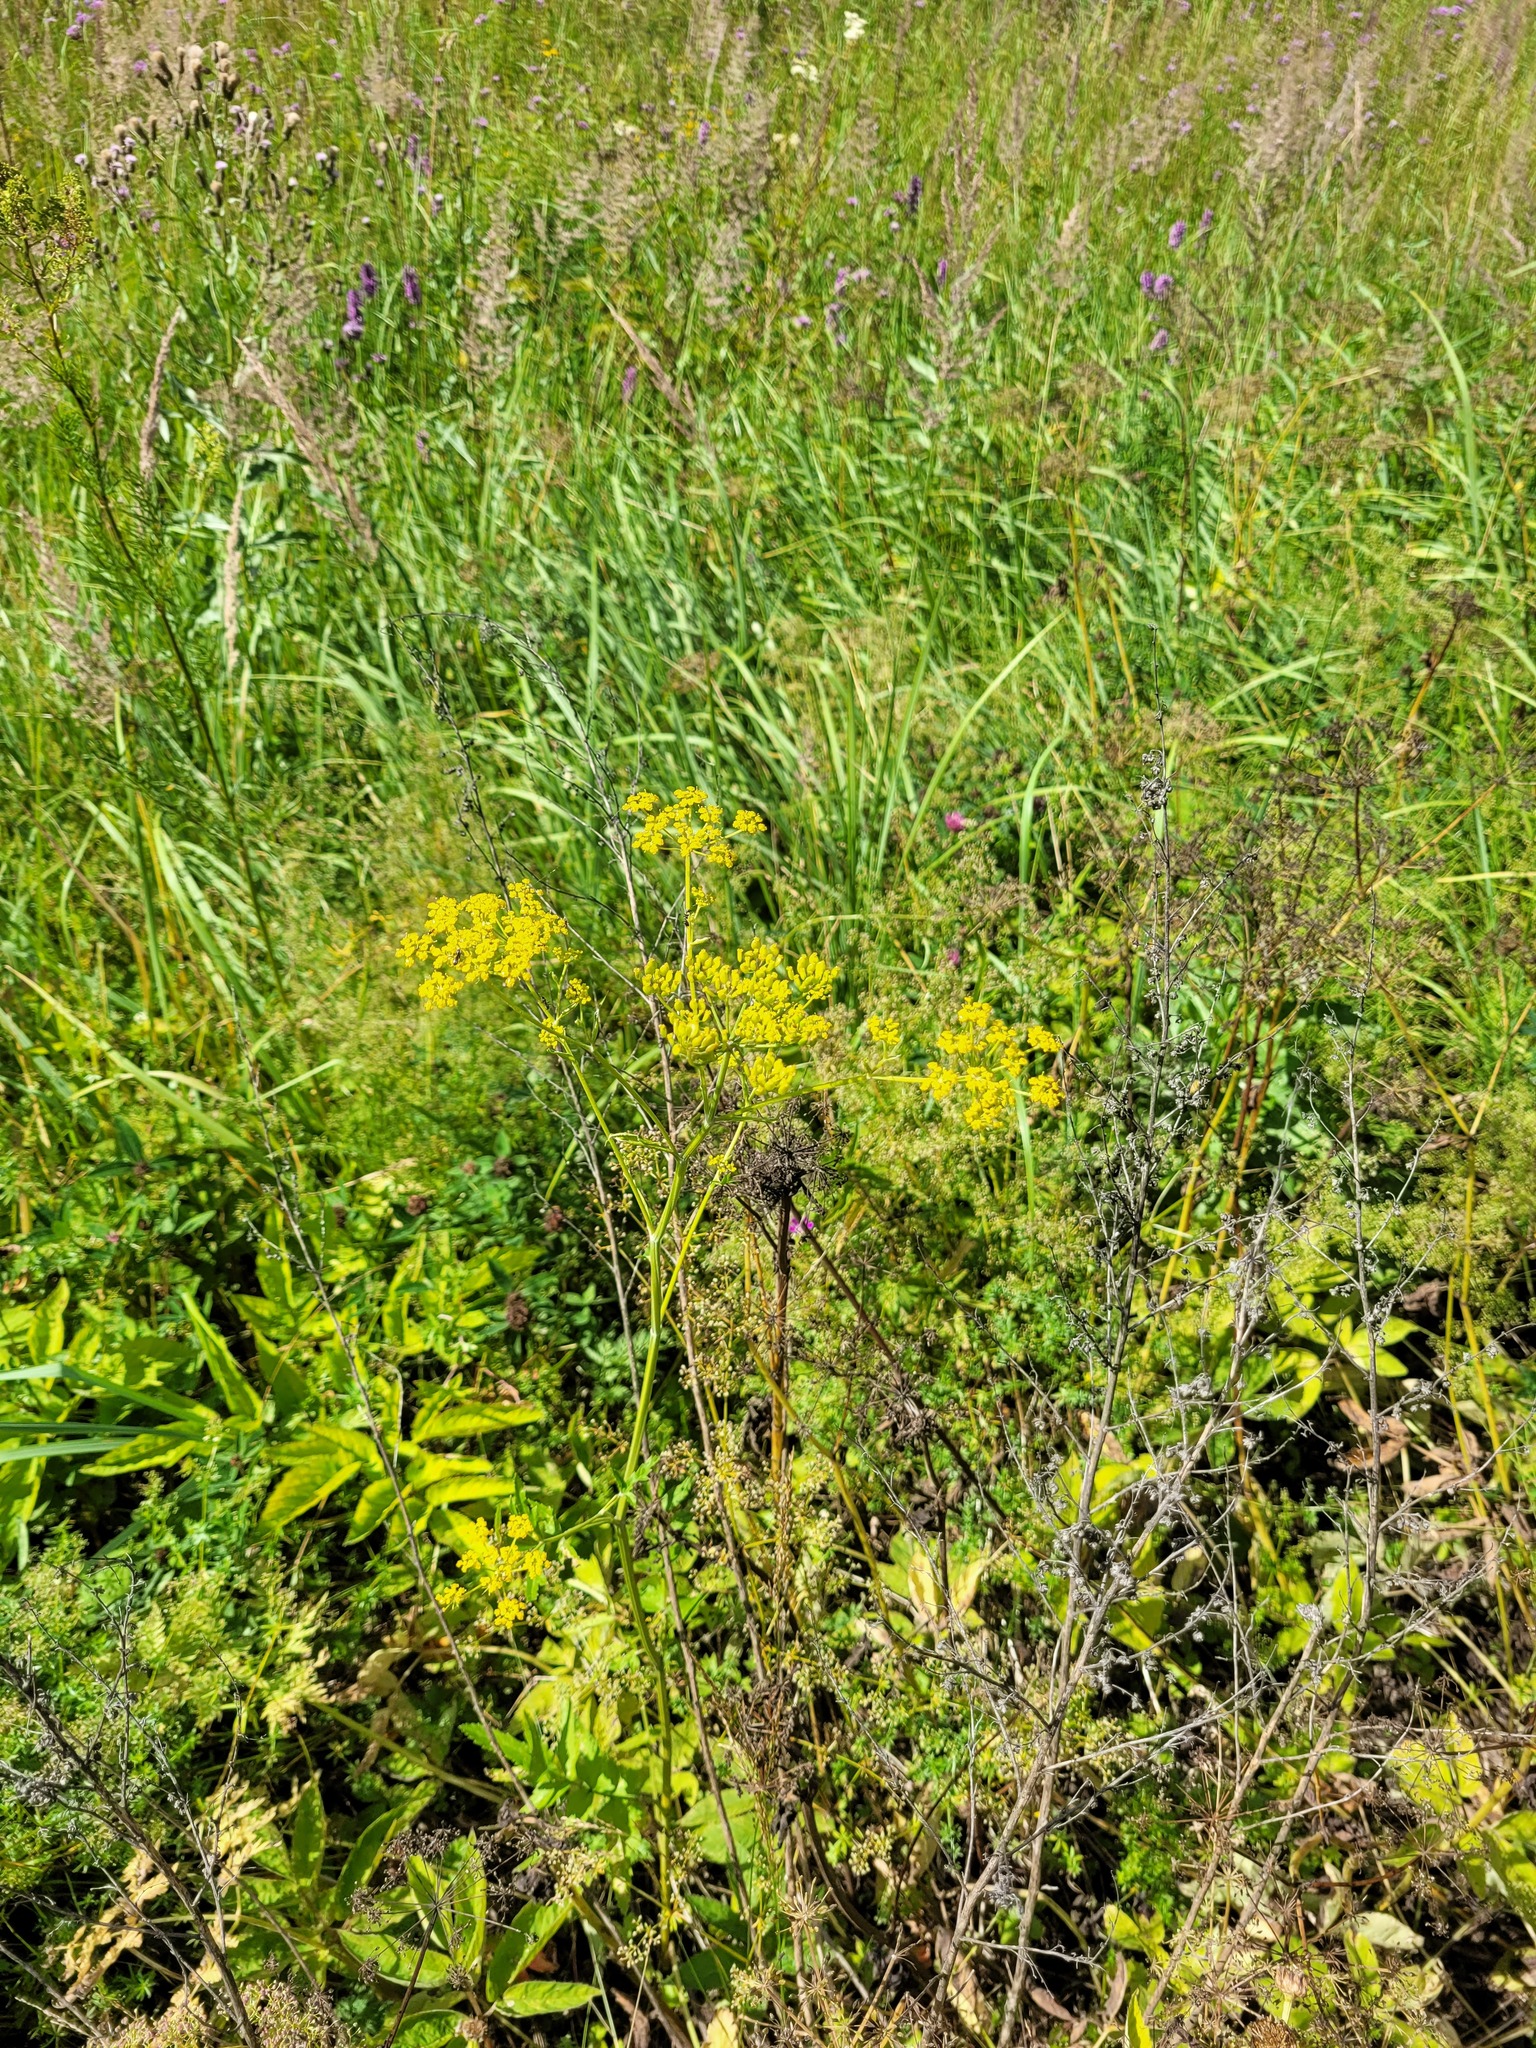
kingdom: Plantae
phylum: Tracheophyta
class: Magnoliopsida
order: Apiales
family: Apiaceae
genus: Pastinaca
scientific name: Pastinaca sativa
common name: Wild parsnip
